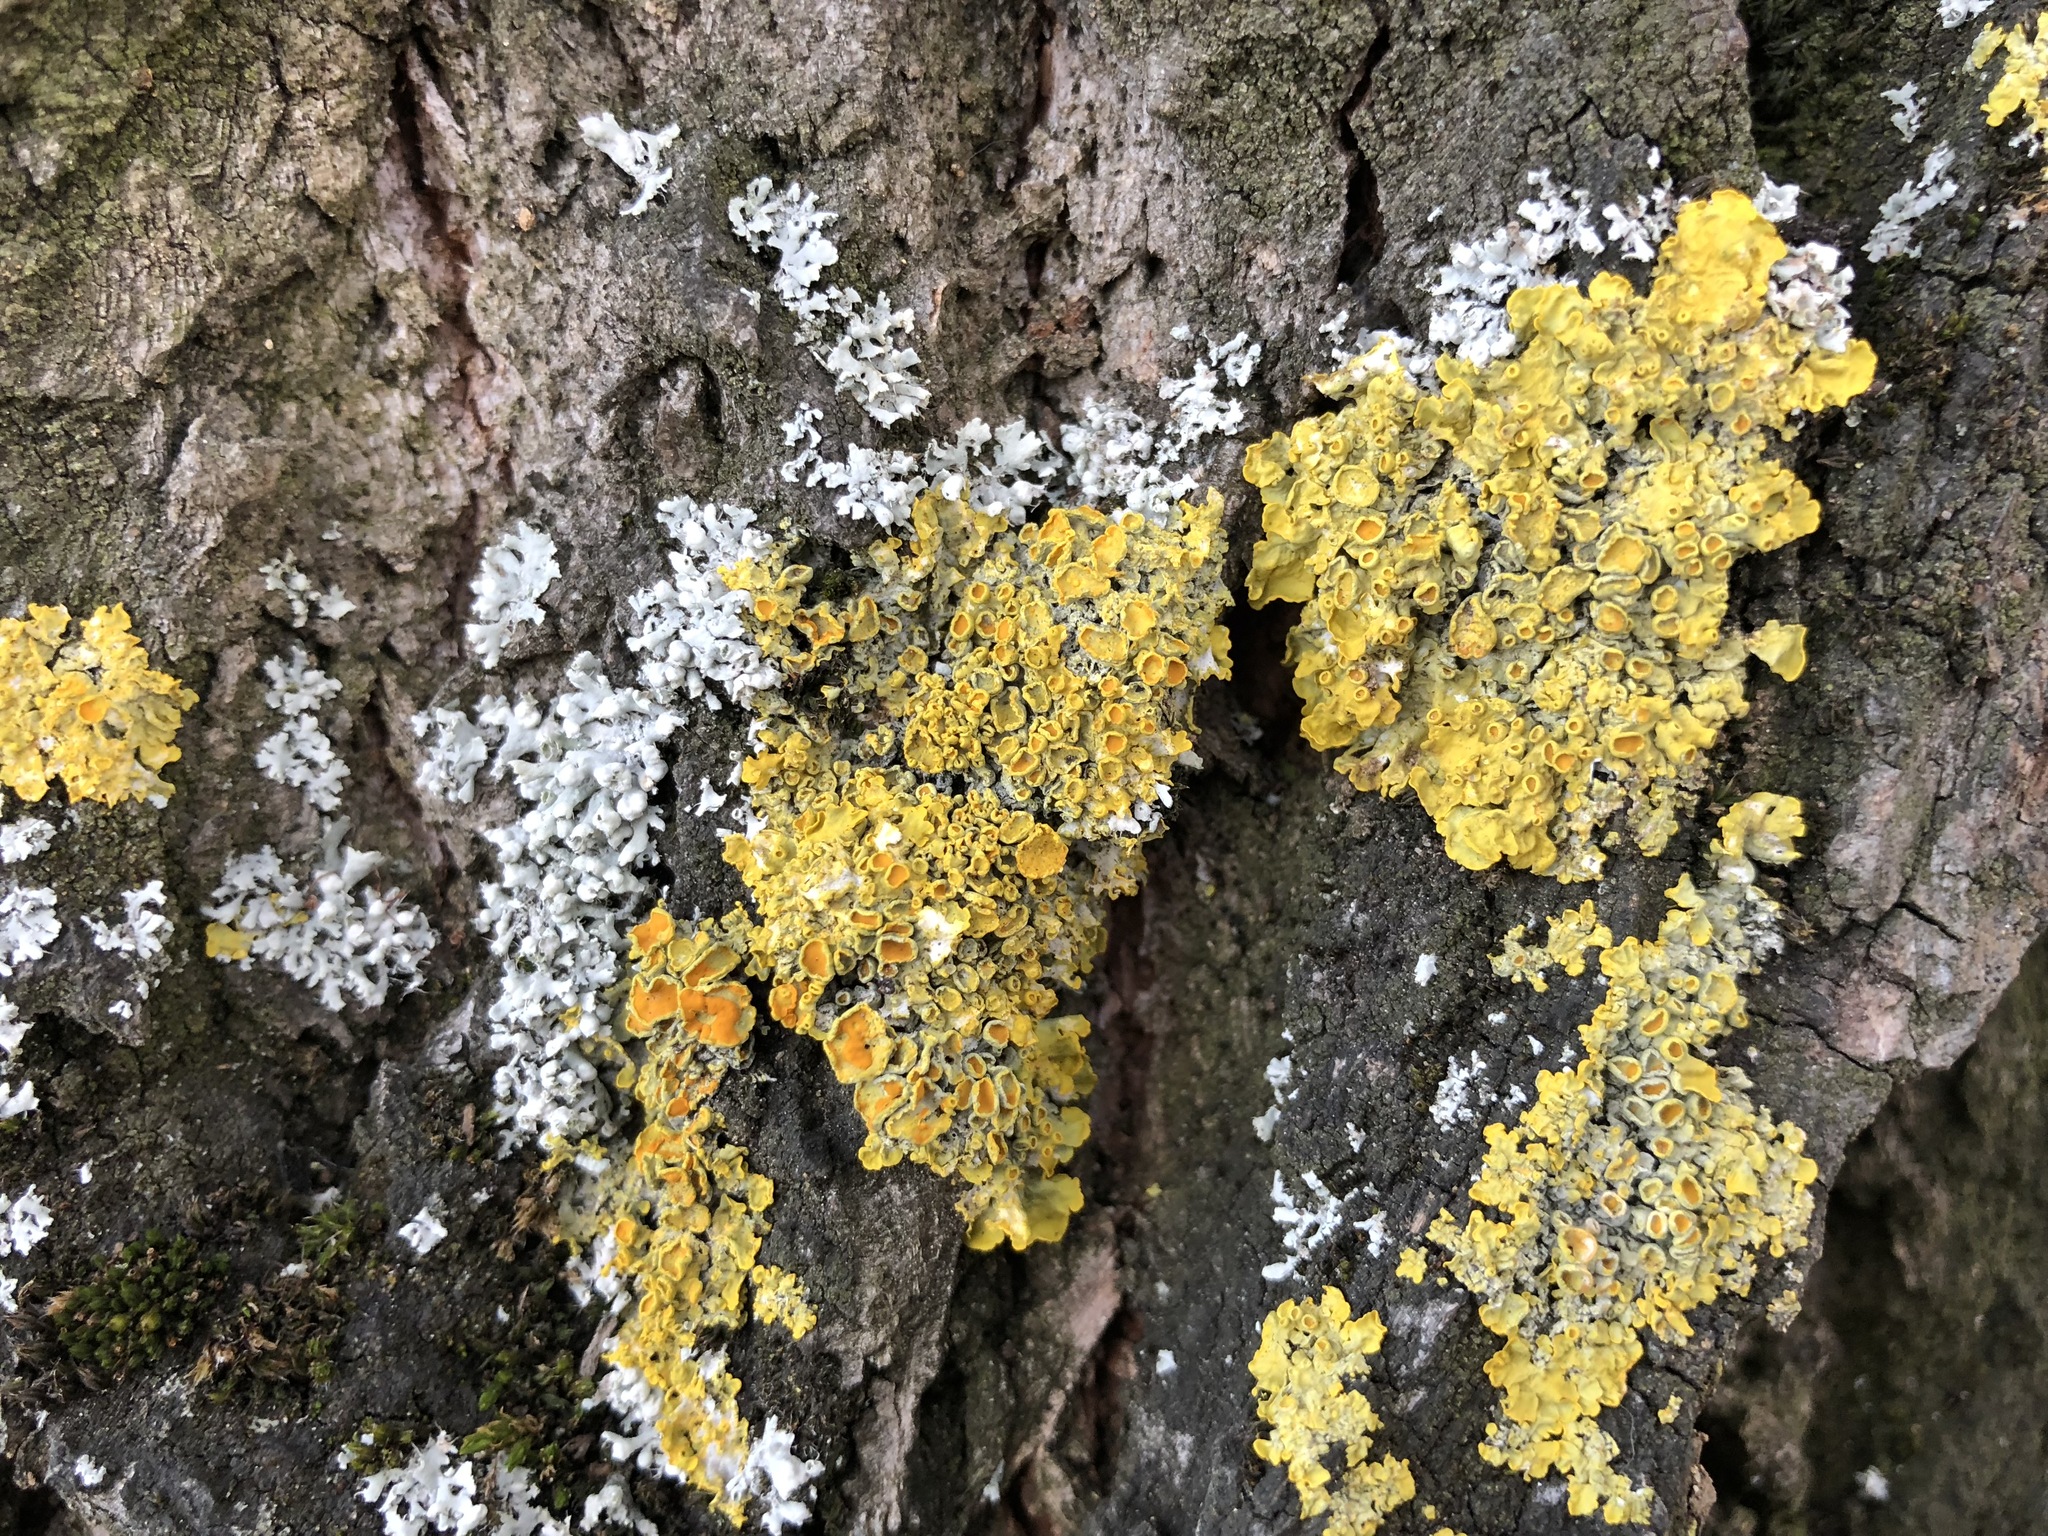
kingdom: Fungi
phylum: Ascomycota
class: Lecanoromycetes
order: Teloschistales
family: Teloschistaceae
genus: Xanthoria
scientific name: Xanthoria parietina
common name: Common orange lichen
